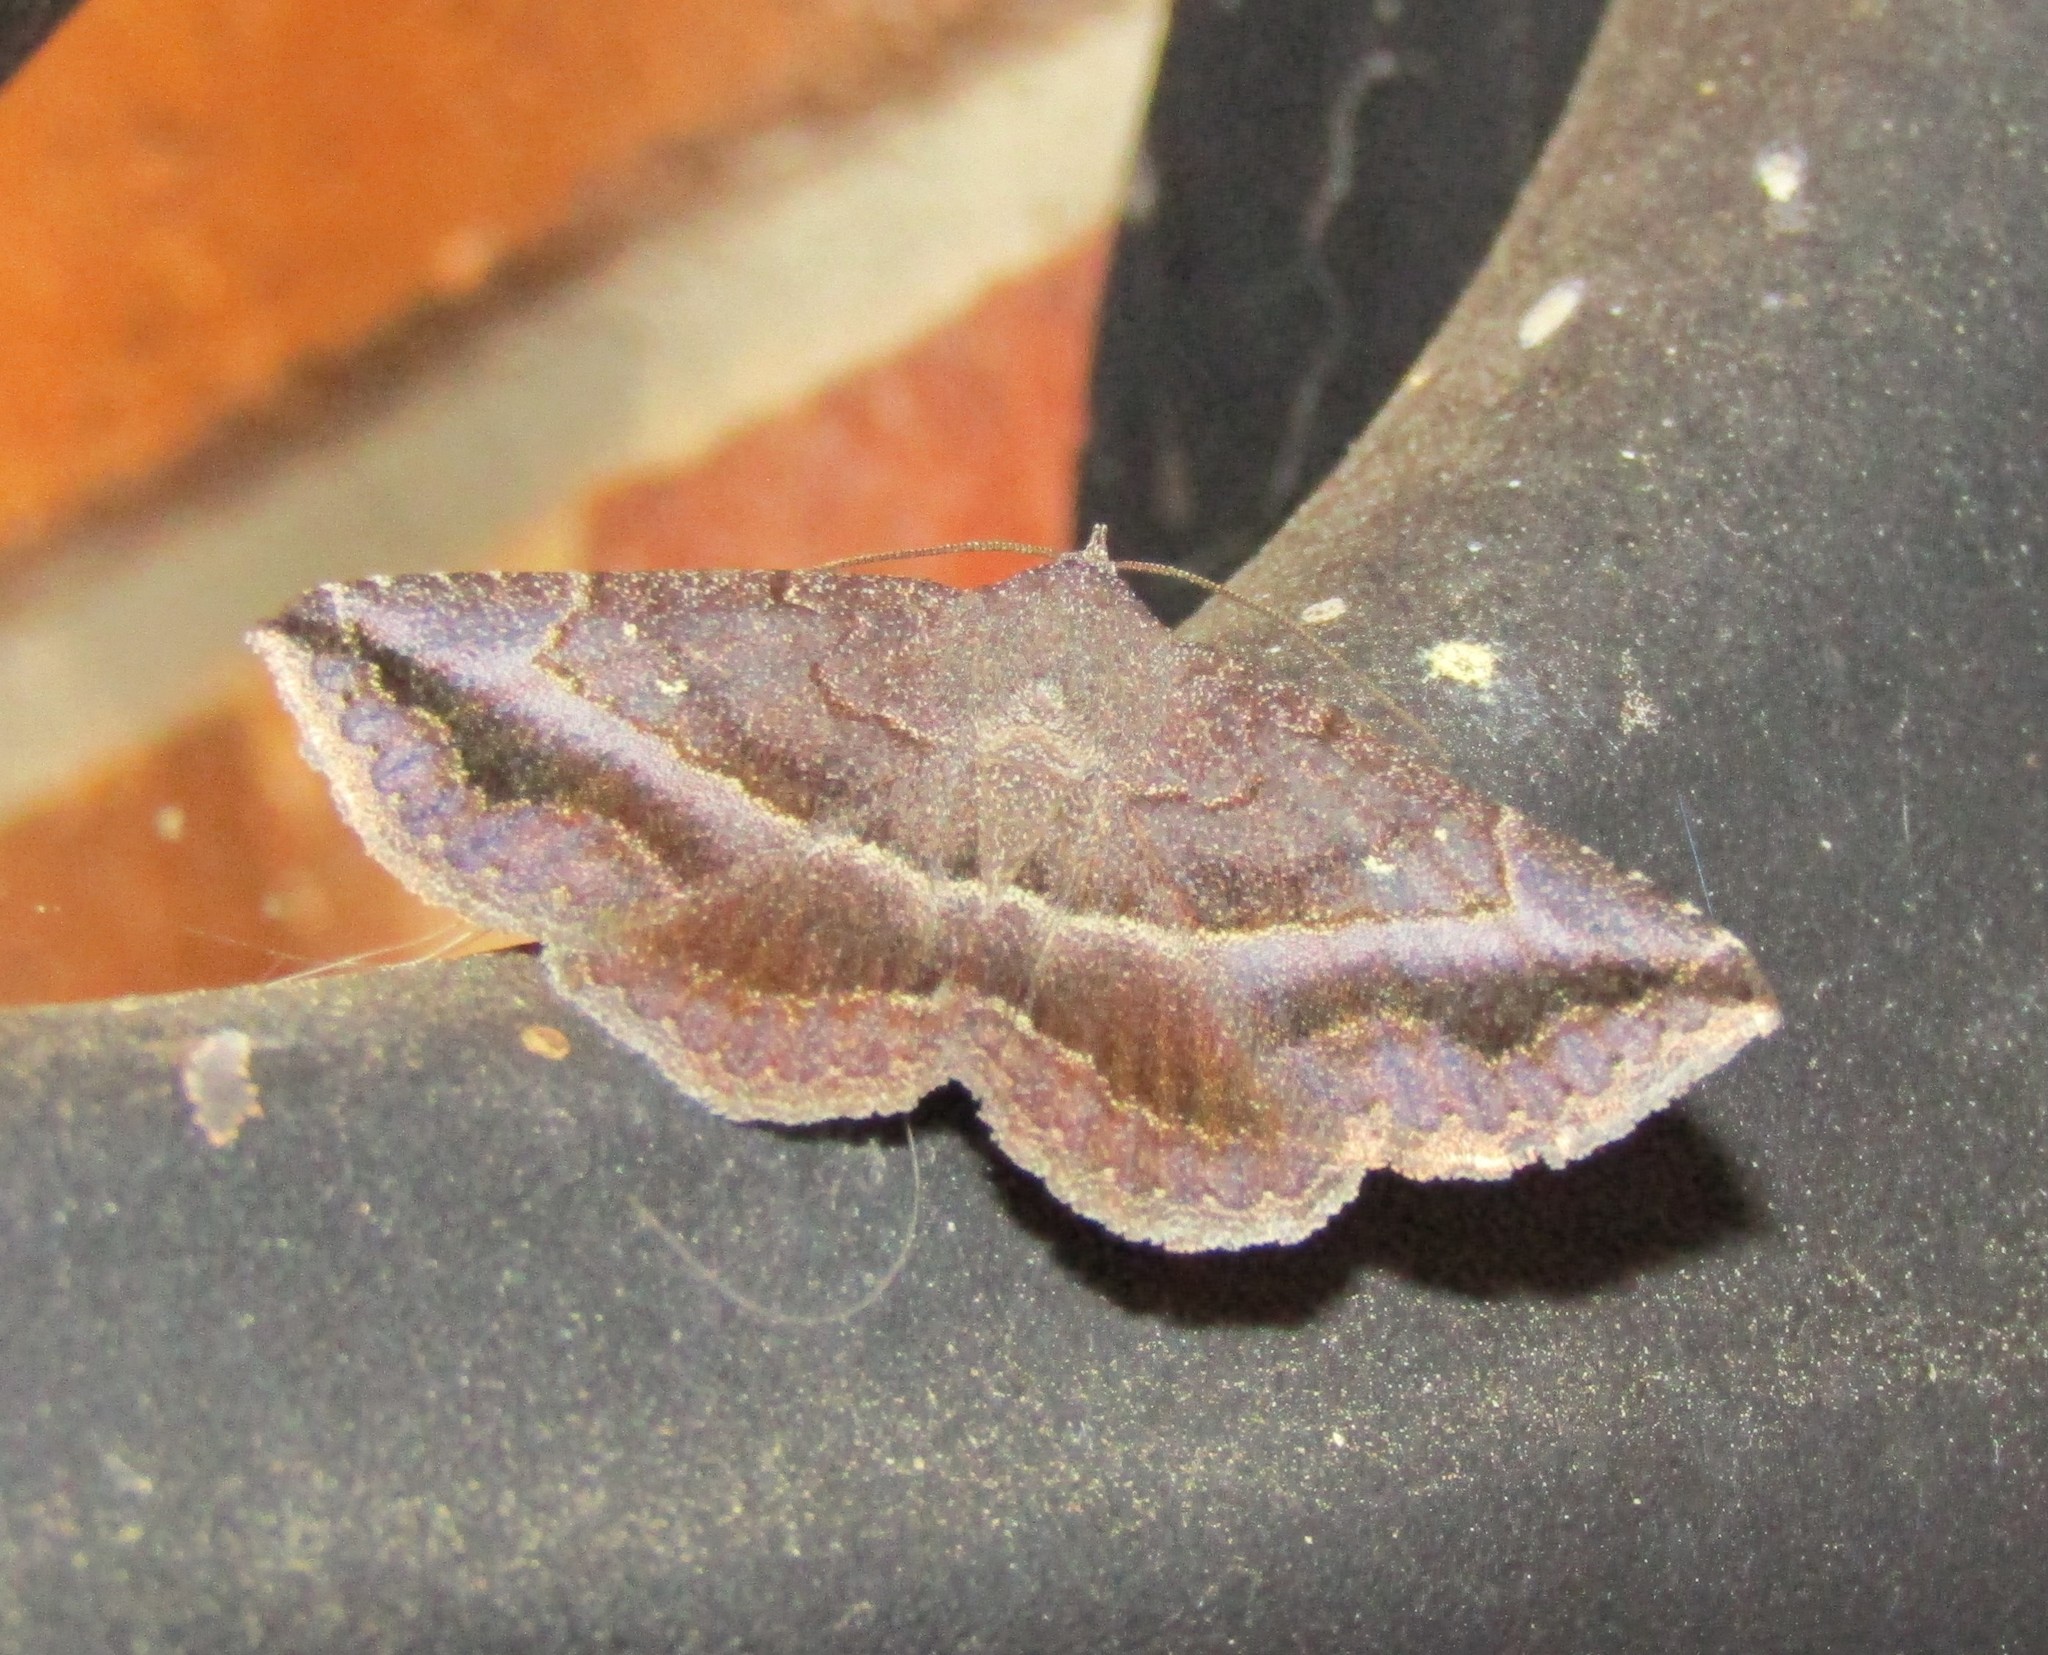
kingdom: Animalia
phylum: Arthropoda
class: Insecta
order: Lepidoptera
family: Erebidae
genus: Lesmone
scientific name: Lesmone detrahens
